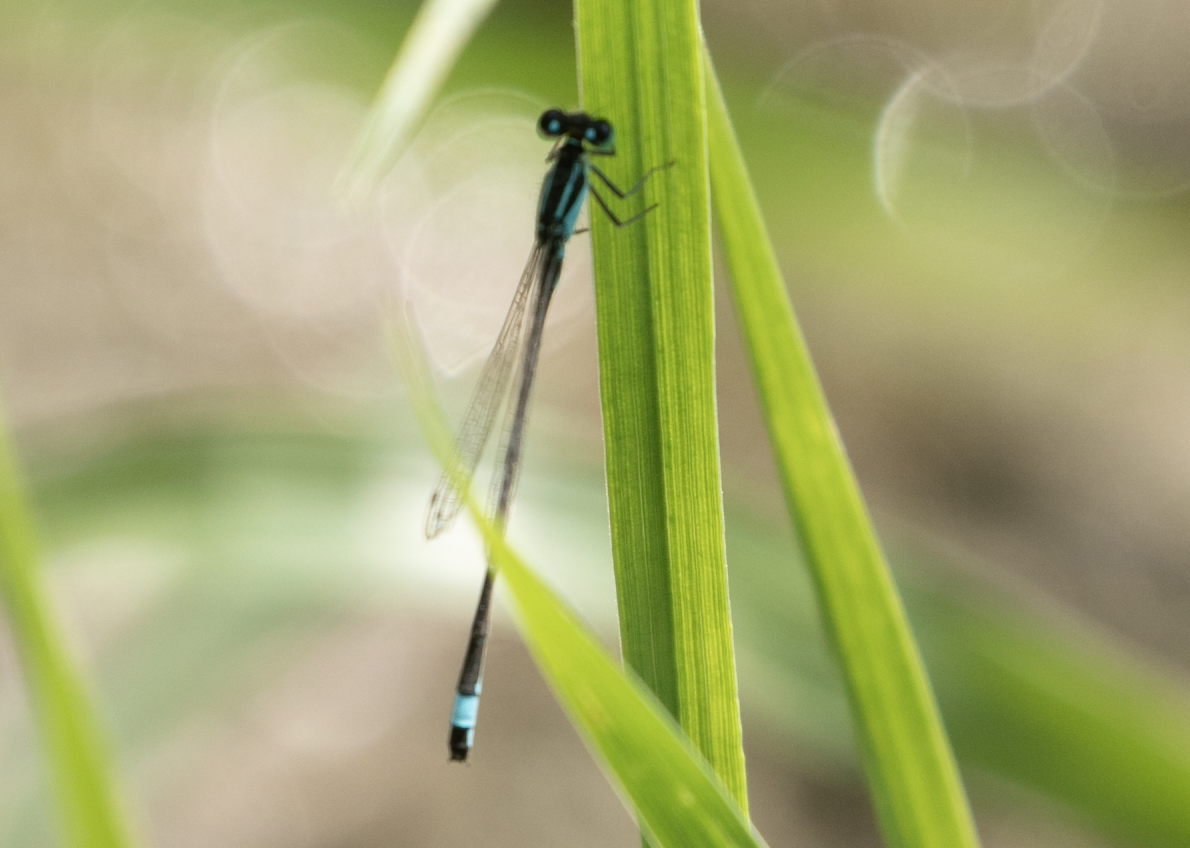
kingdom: Animalia
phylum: Arthropoda
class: Insecta
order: Odonata
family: Coenagrionidae
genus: Ischnura
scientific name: Ischnura elegans
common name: Blue-tailed damselfly
